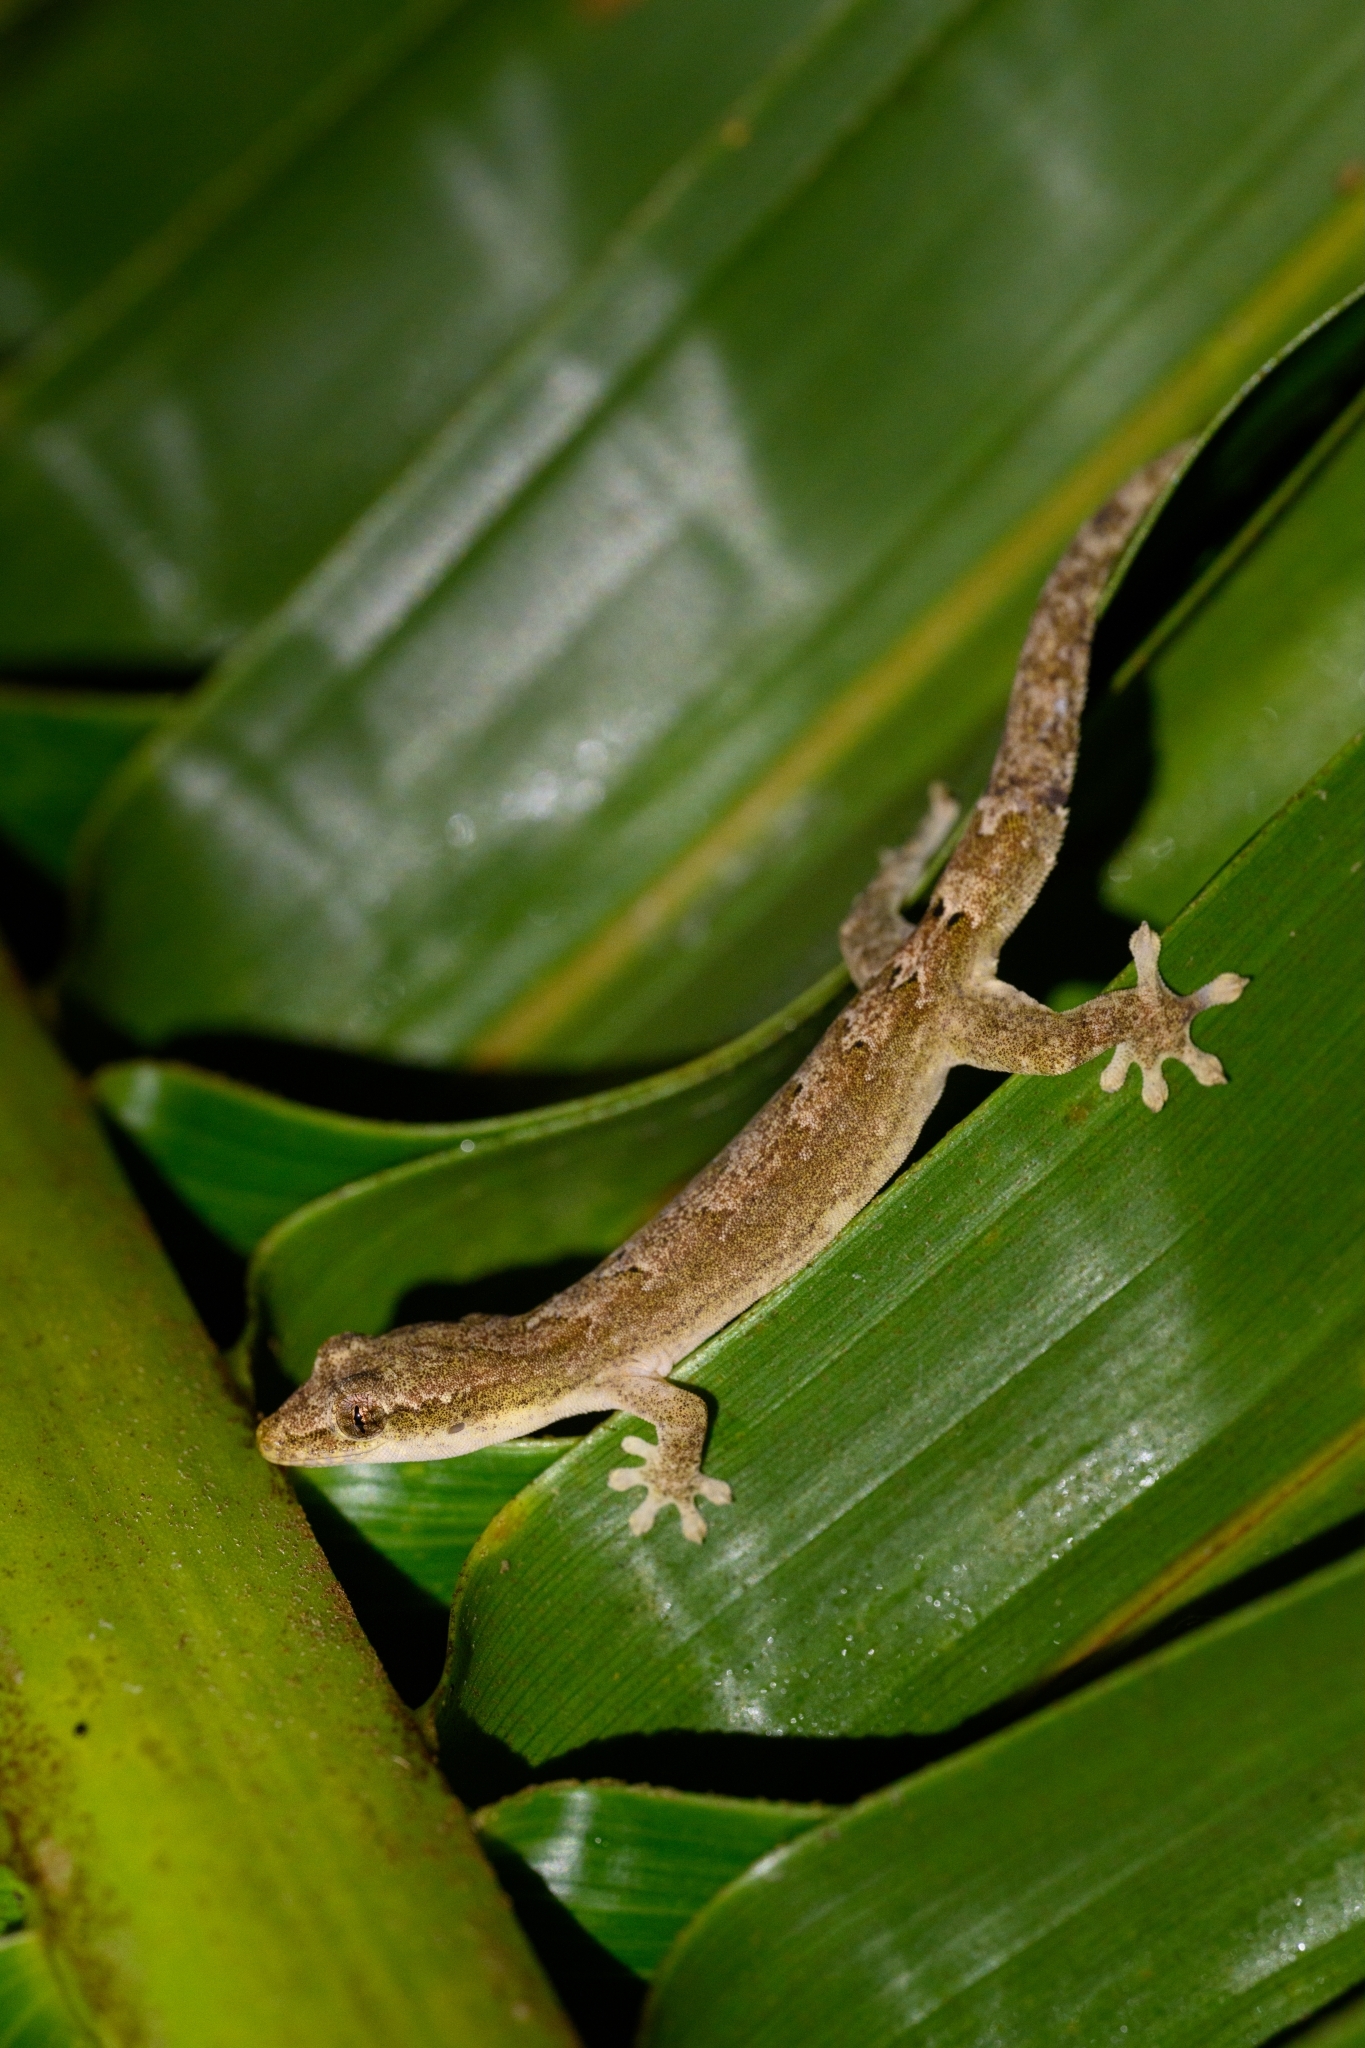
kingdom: Animalia
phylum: Chordata
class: Squamata
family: Gekkonidae
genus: Lepidodactylus
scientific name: Lepidodactylus lugubris
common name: Mourning gecko
